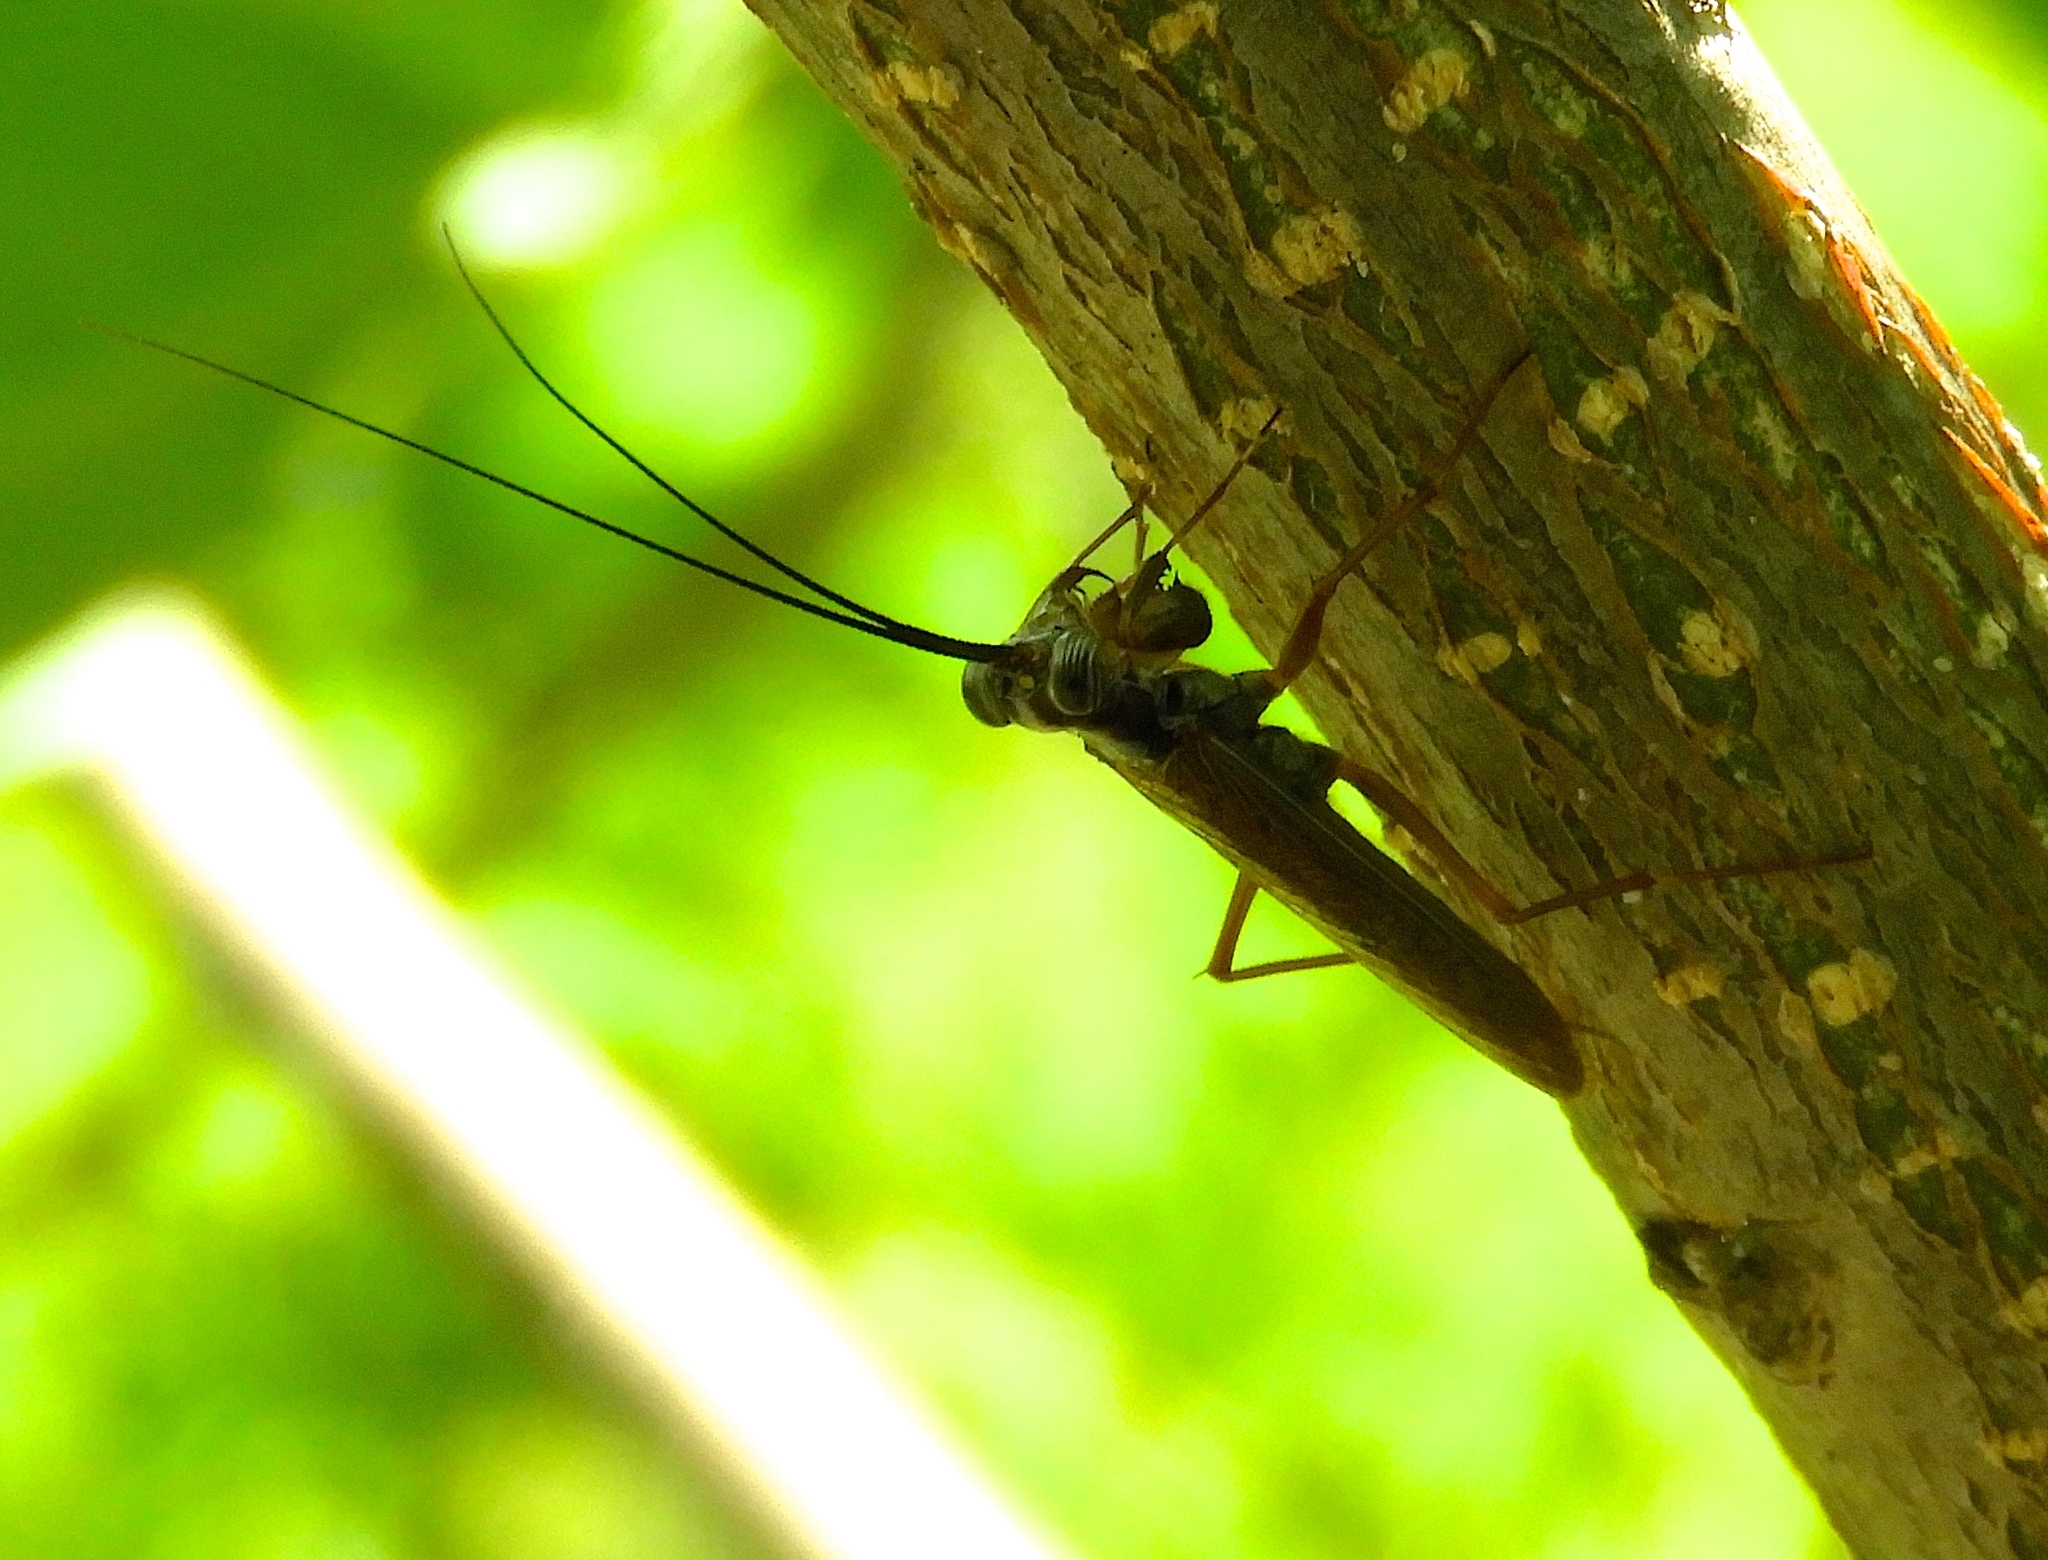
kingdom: Animalia
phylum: Arthropoda
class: Insecta
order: Mantodea
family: Mantoididae
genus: Mantoida
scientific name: Mantoida maya
